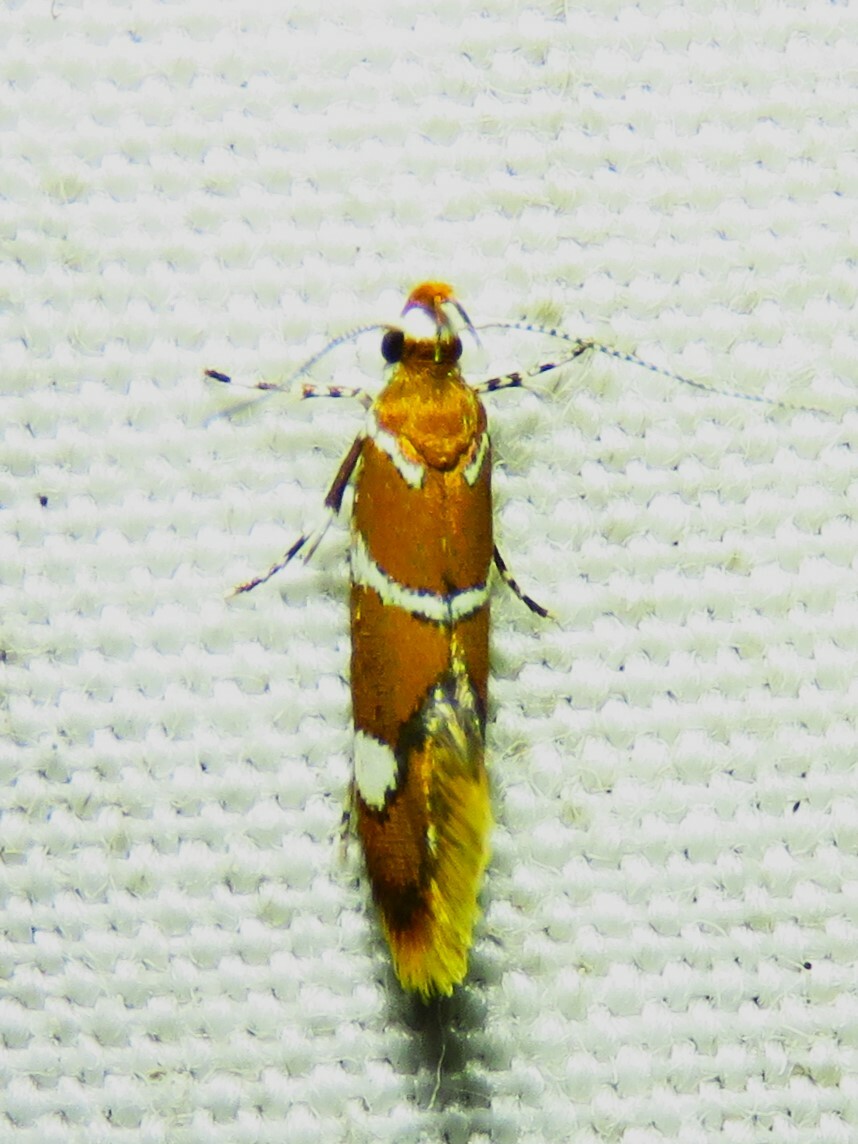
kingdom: Animalia
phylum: Arthropoda
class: Insecta
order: Lepidoptera
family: Oecophoridae
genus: Promalactis
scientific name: Promalactis suzukiella
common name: Moth
